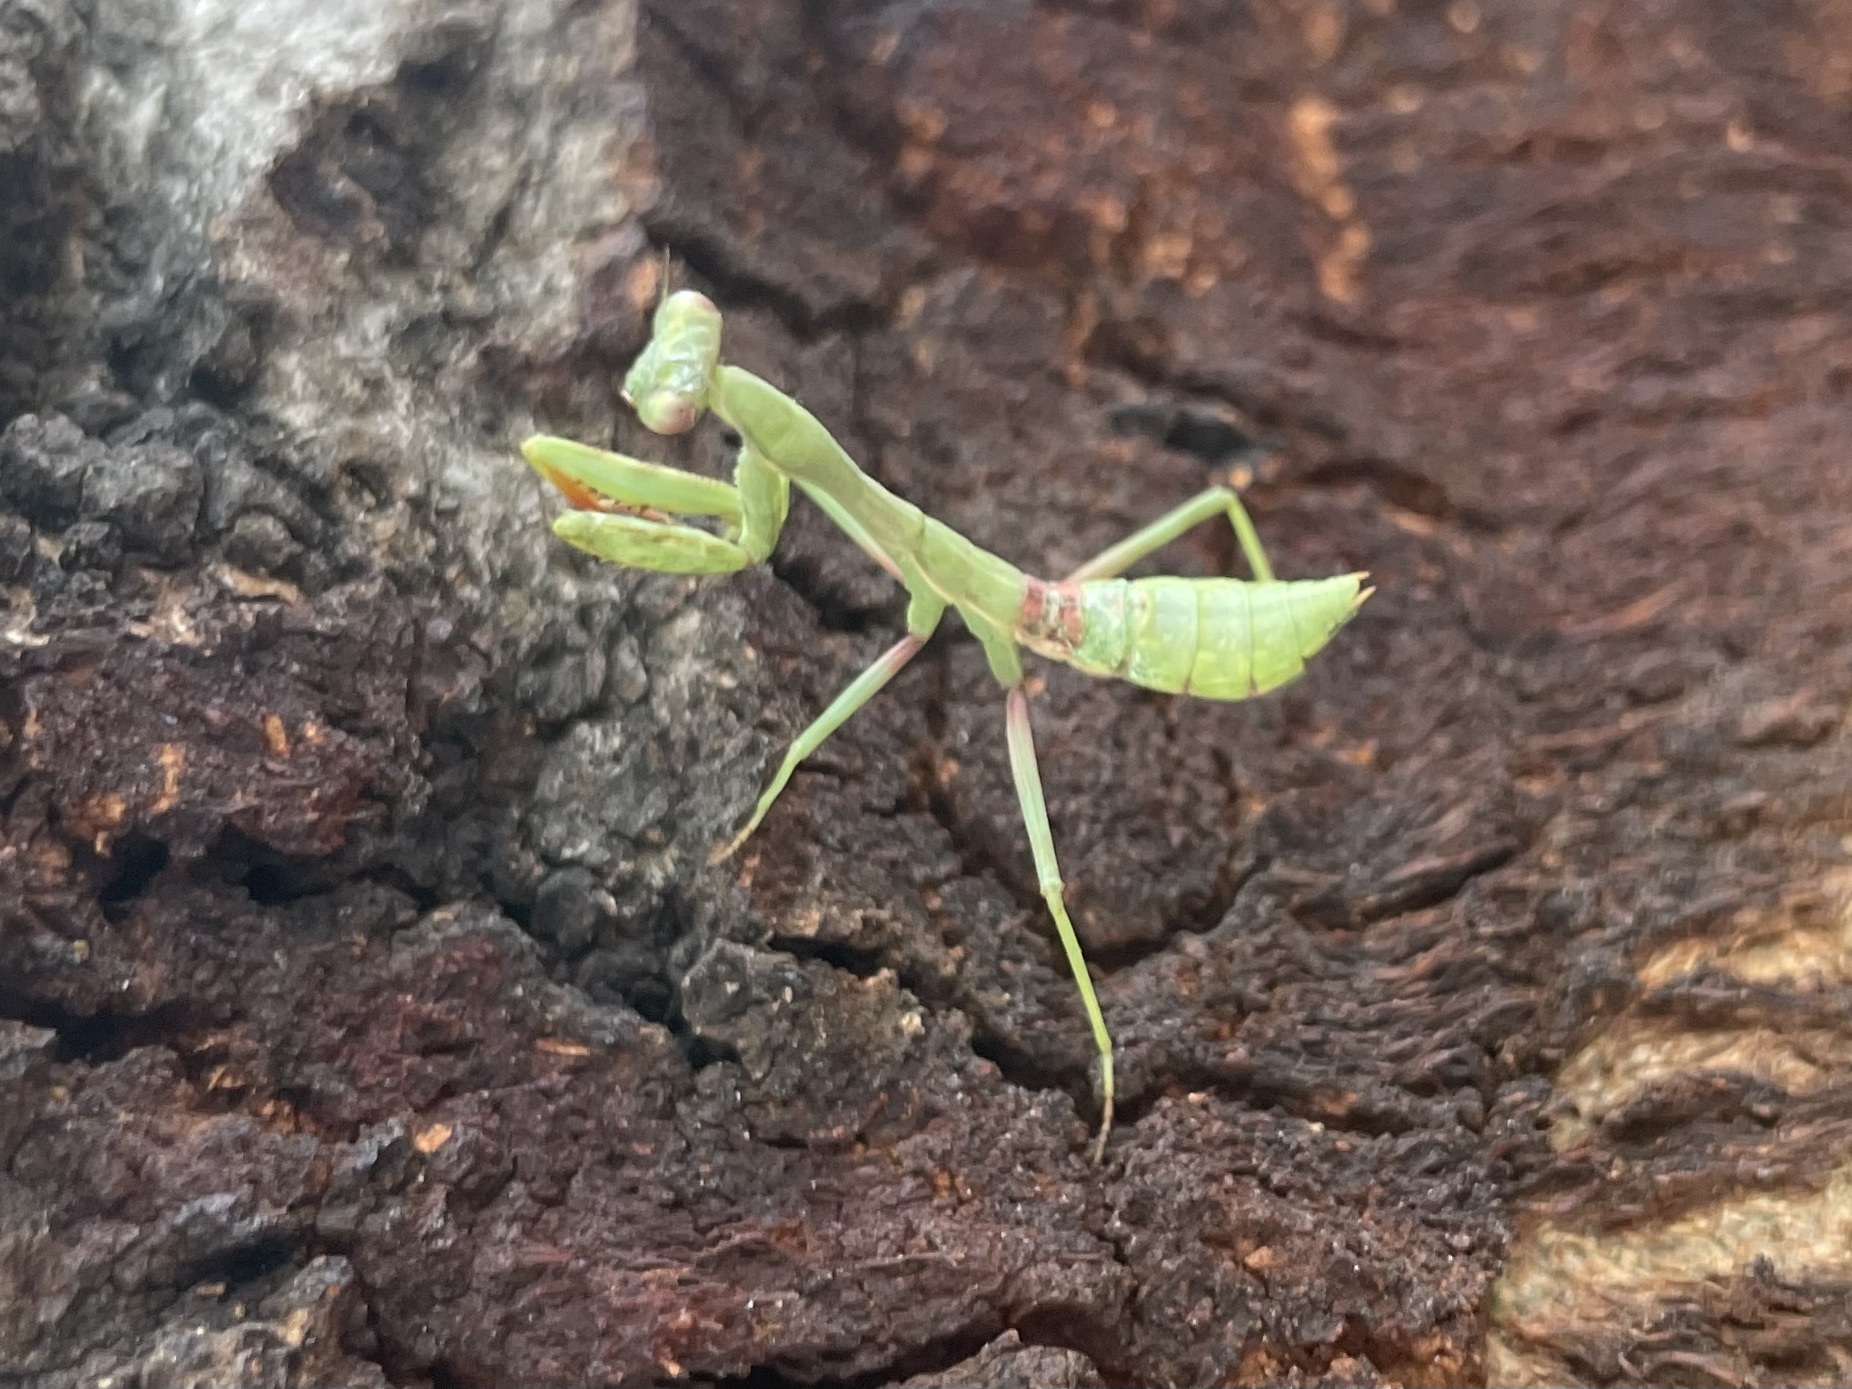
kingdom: Animalia
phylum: Arthropoda
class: Insecta
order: Mantodea
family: Mantidae
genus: Stagmomantis
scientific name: Stagmomantis limbata
